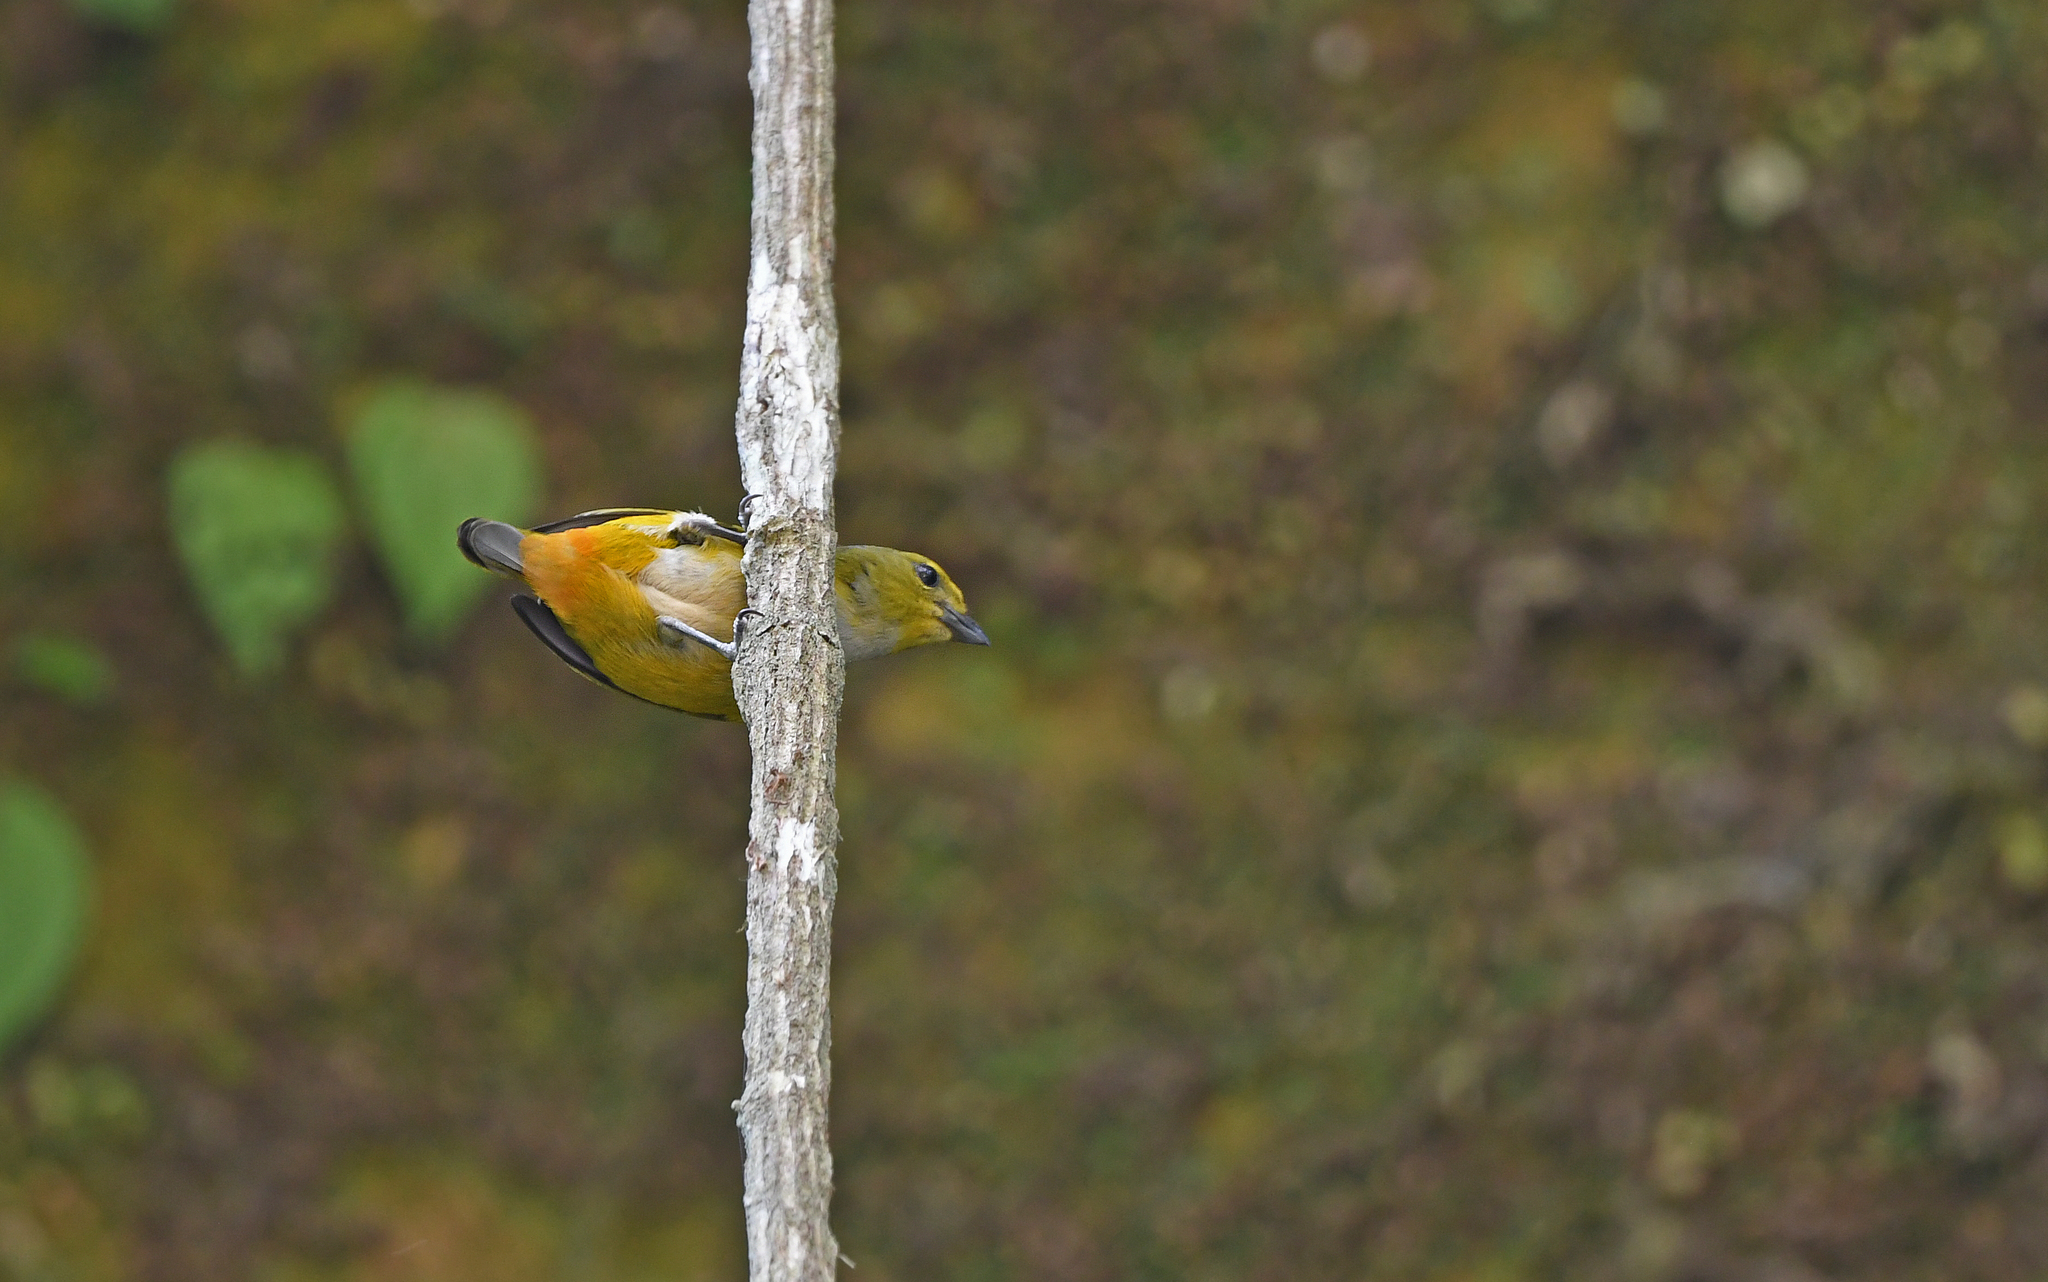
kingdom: Animalia
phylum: Chordata
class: Aves
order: Passeriformes
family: Fringillidae
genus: Euphonia
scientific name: Euphonia rufiventris
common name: Rufous-bellied euphonia
